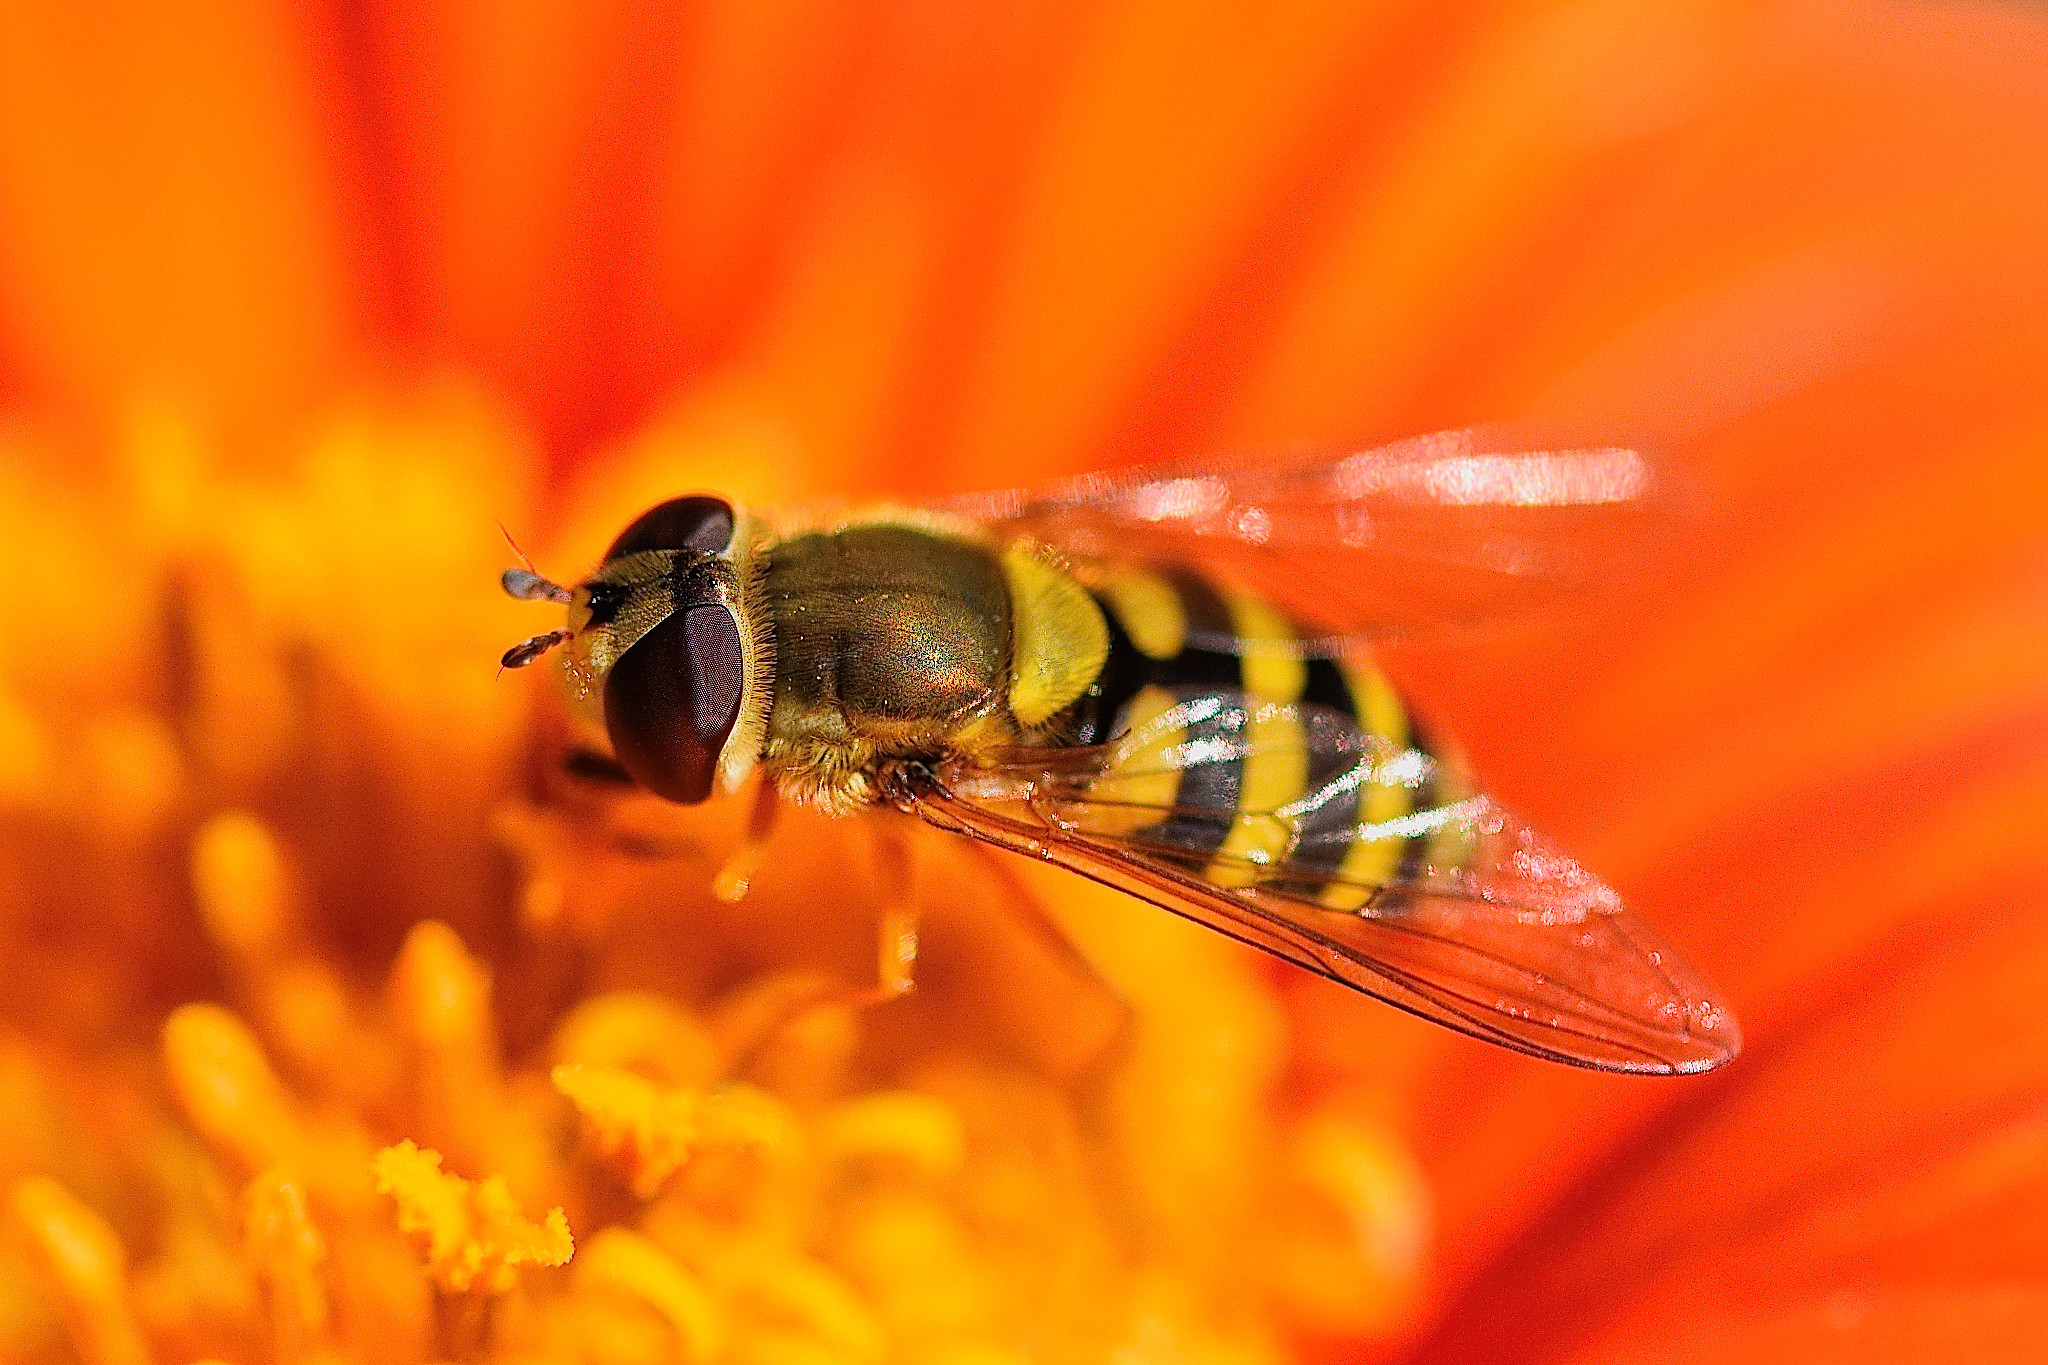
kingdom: Animalia
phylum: Arthropoda
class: Insecta
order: Diptera
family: Syrphidae
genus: Syrphus
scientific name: Syrphus ribesii
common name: Common flower fly
